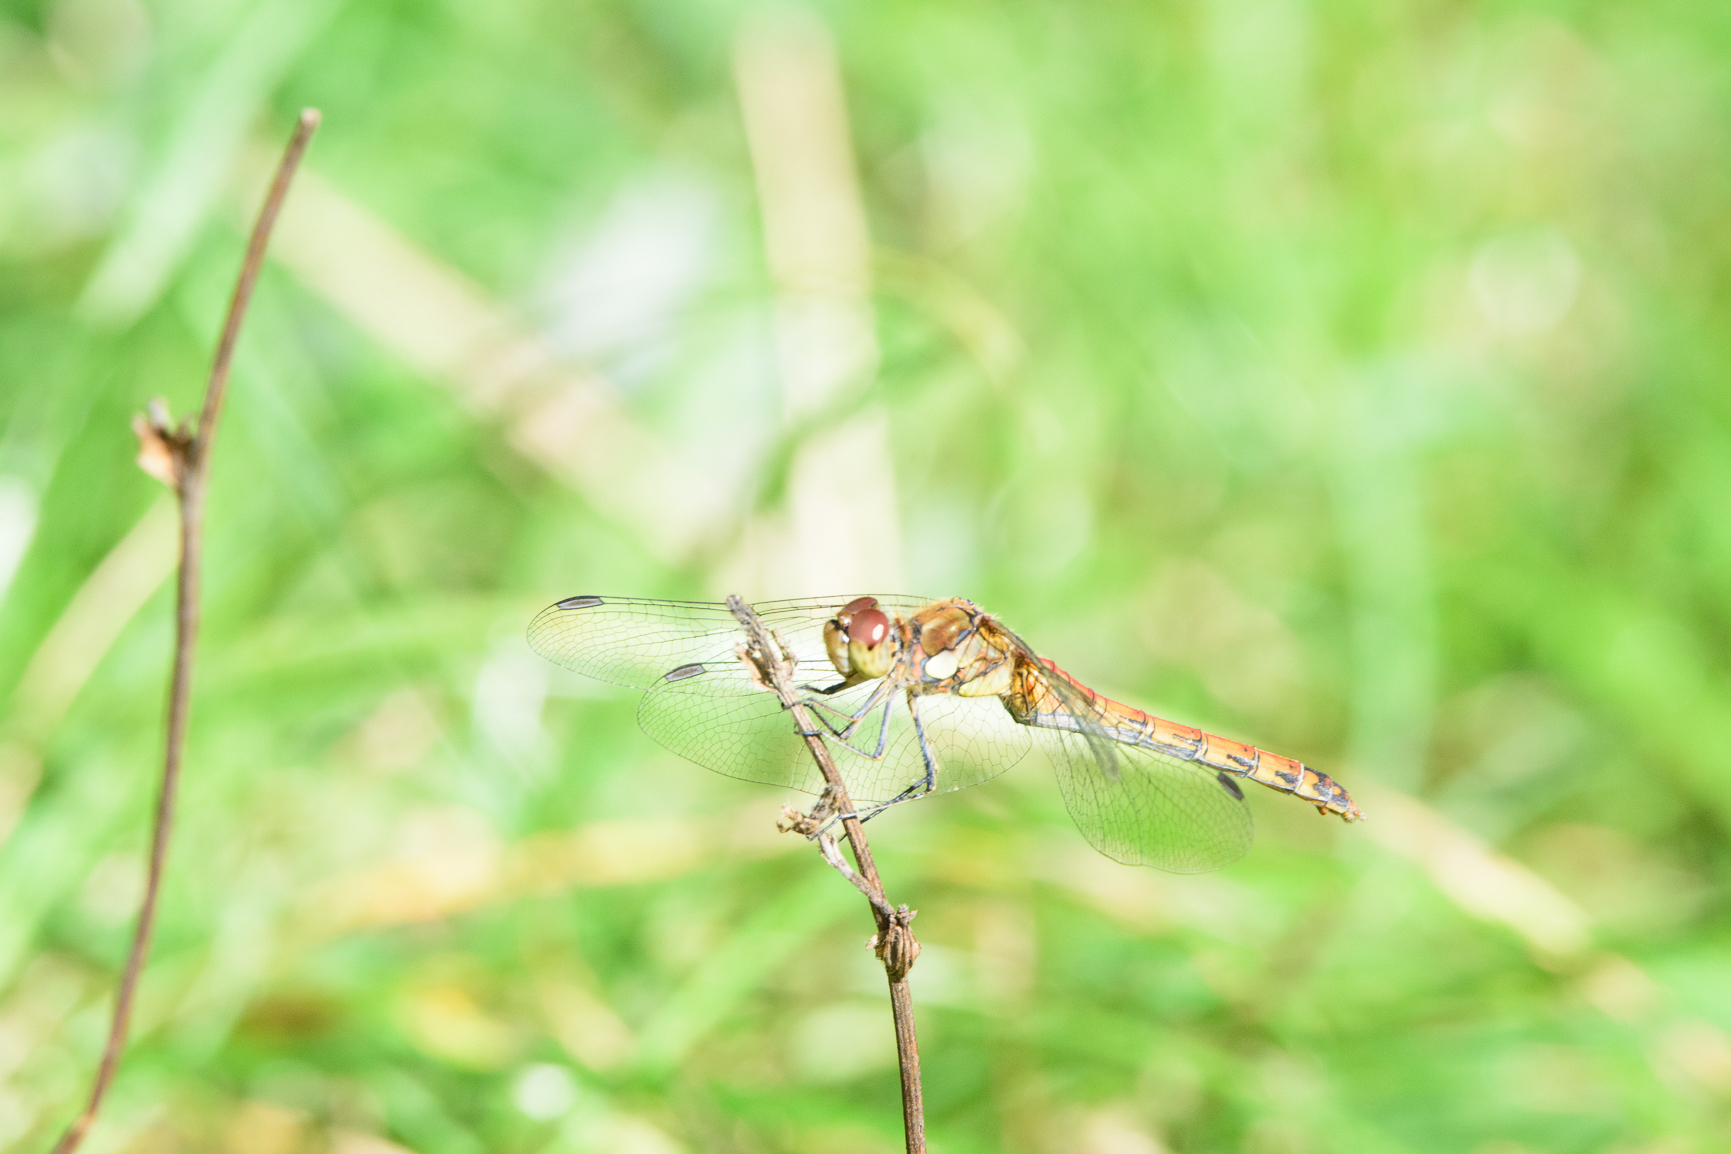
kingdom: Animalia
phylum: Arthropoda
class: Insecta
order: Odonata
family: Libellulidae
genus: Sympetrum
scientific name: Sympetrum striolatum
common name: Common darter
